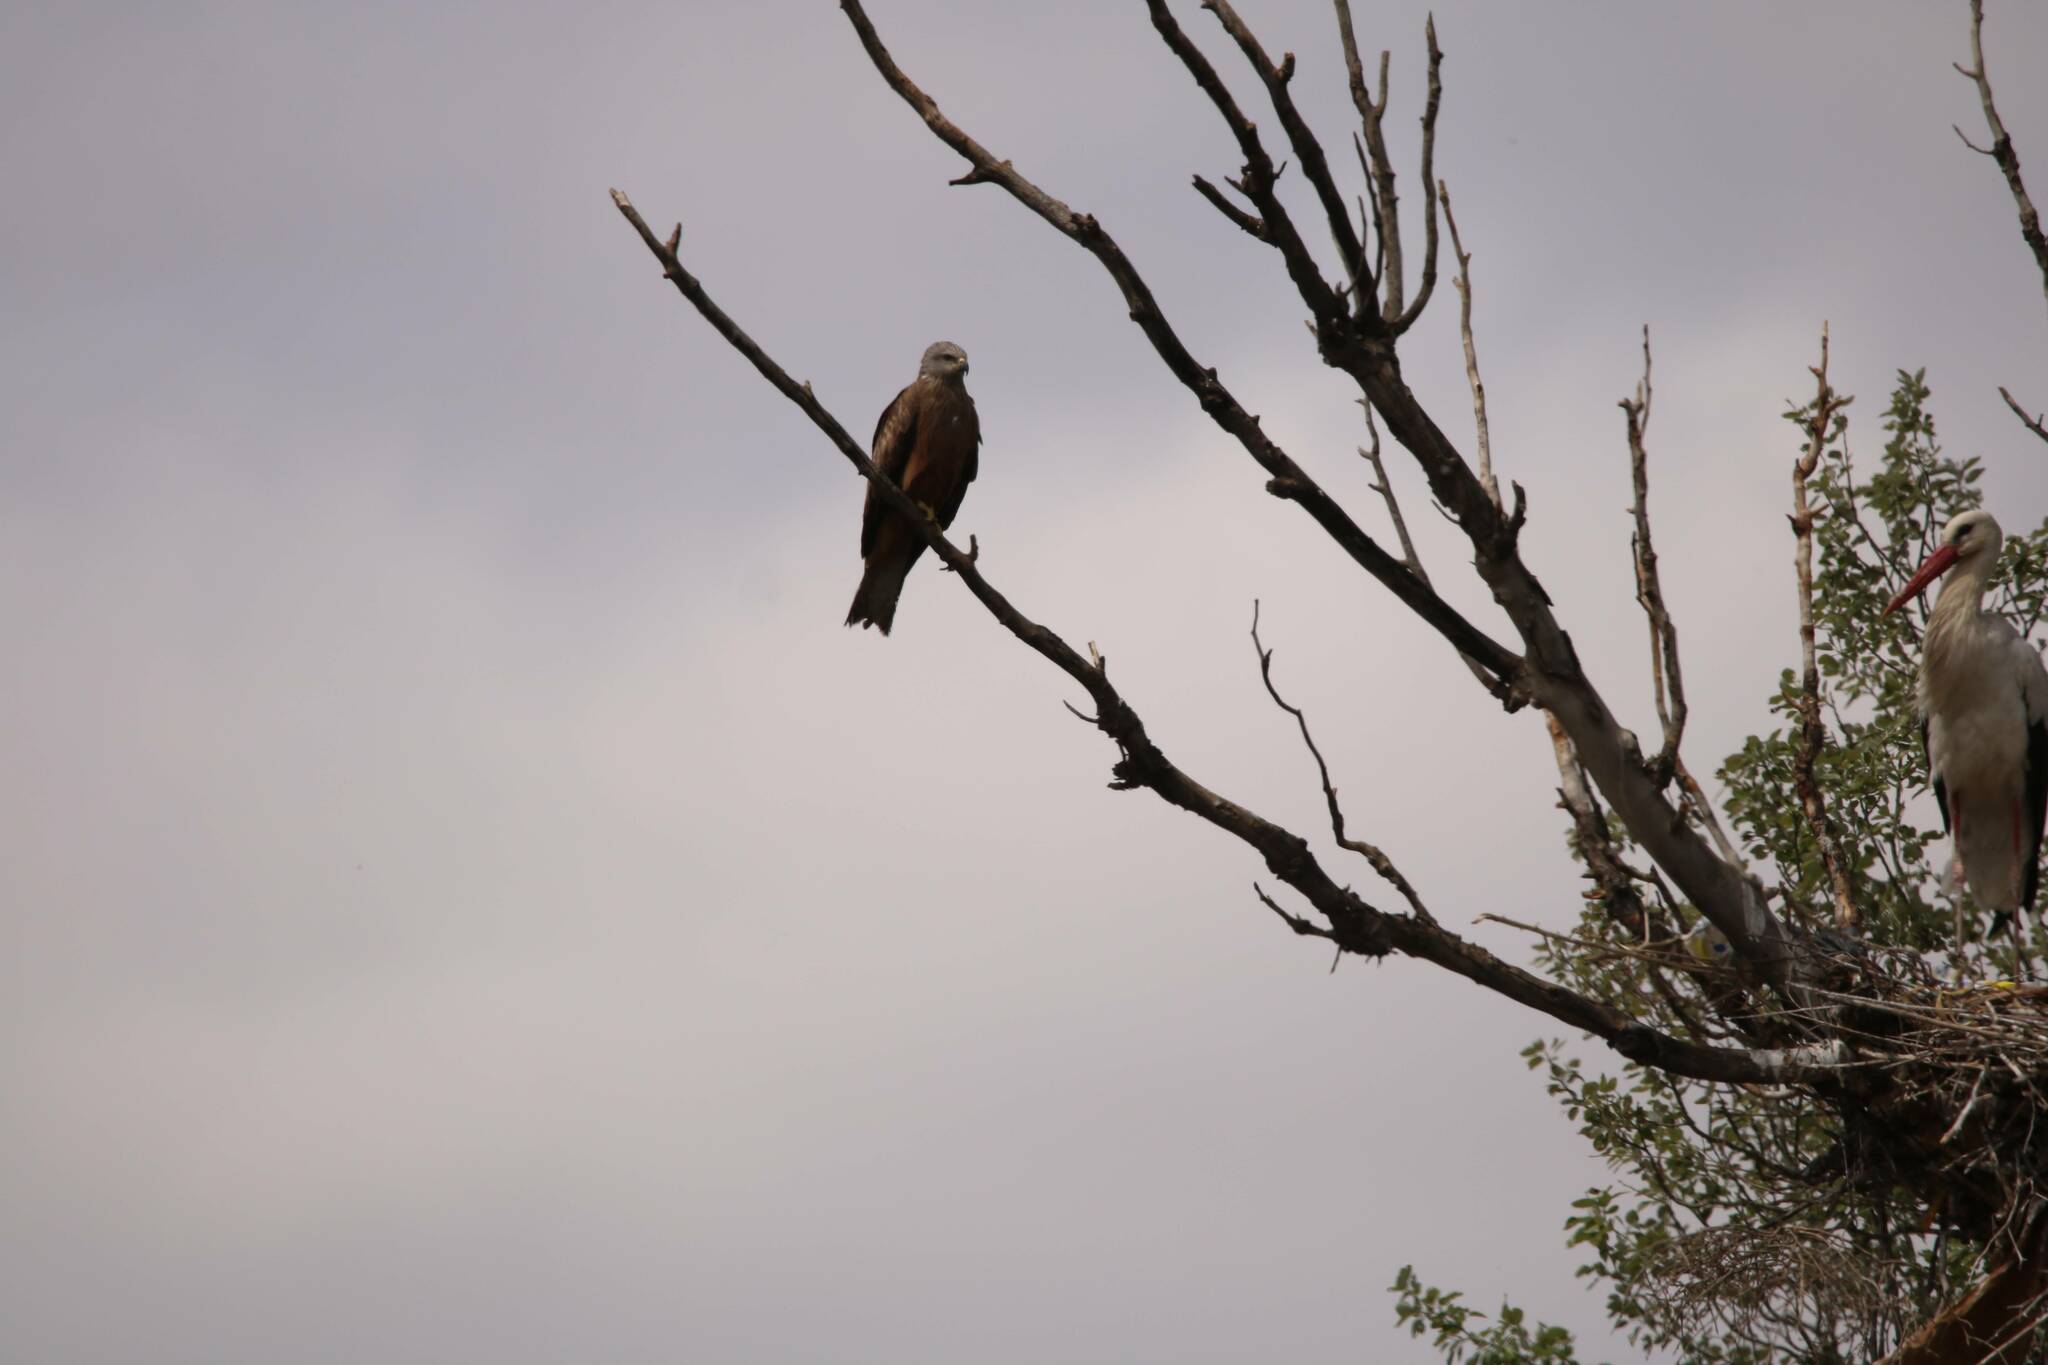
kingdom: Animalia
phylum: Chordata
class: Aves
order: Accipitriformes
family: Accipitridae
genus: Milvus
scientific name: Milvus migrans
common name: Black kite
